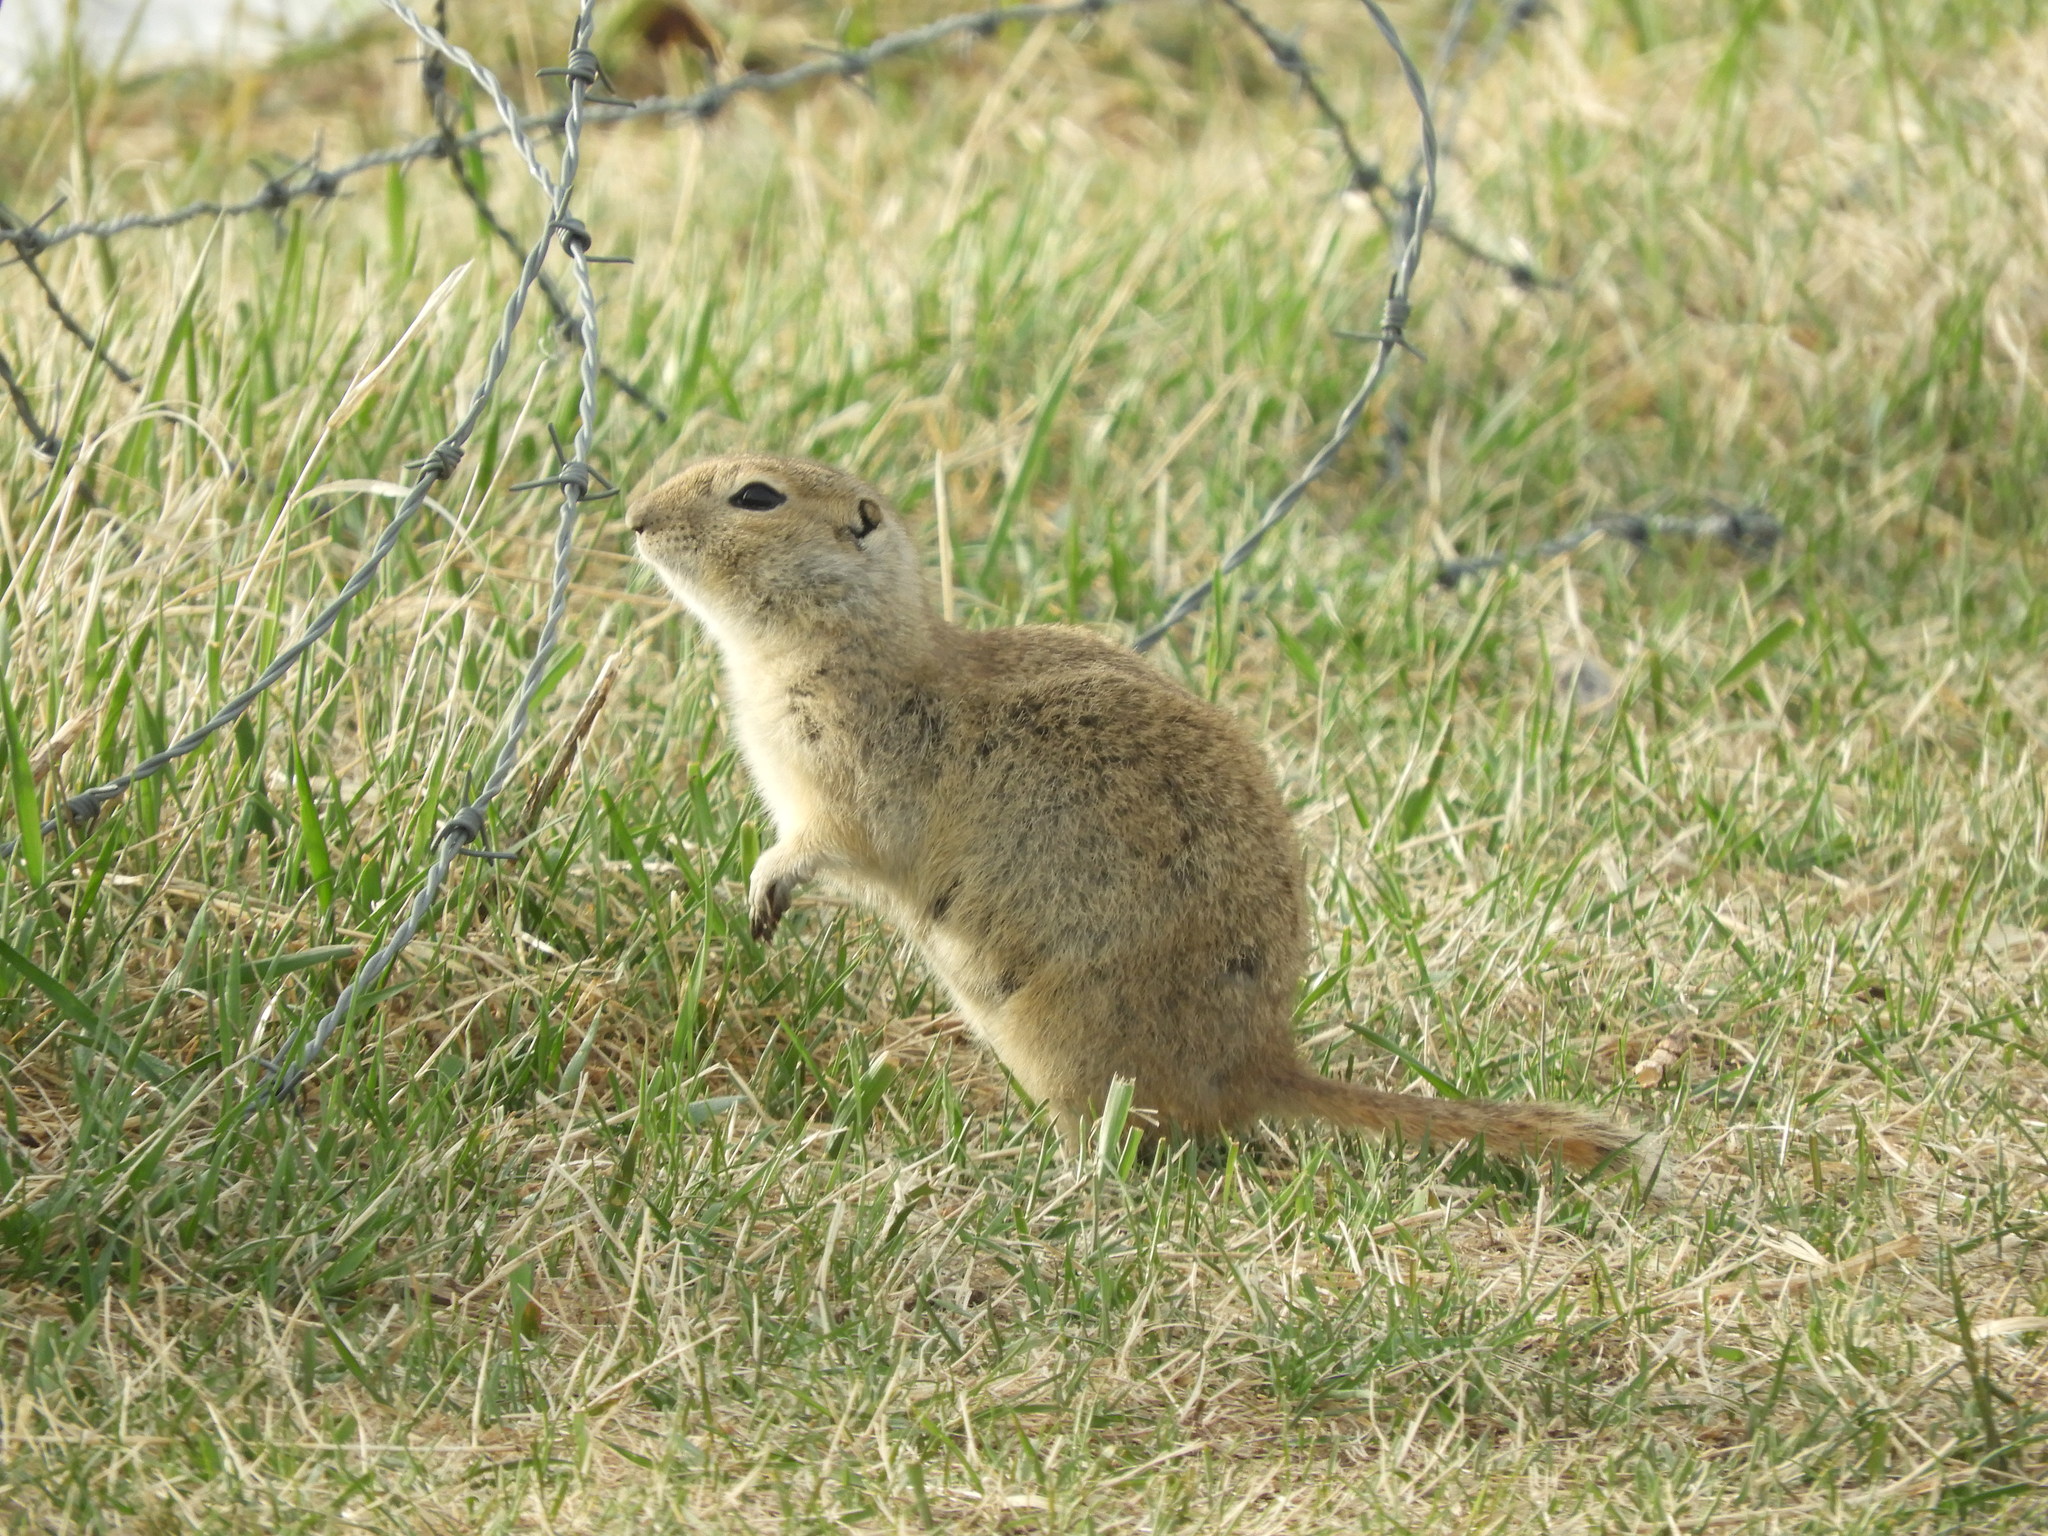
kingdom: Animalia
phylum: Chordata
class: Mammalia
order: Rodentia
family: Sciuridae
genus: Urocitellus
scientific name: Urocitellus richardsonii
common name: Richardson's ground squirrel
